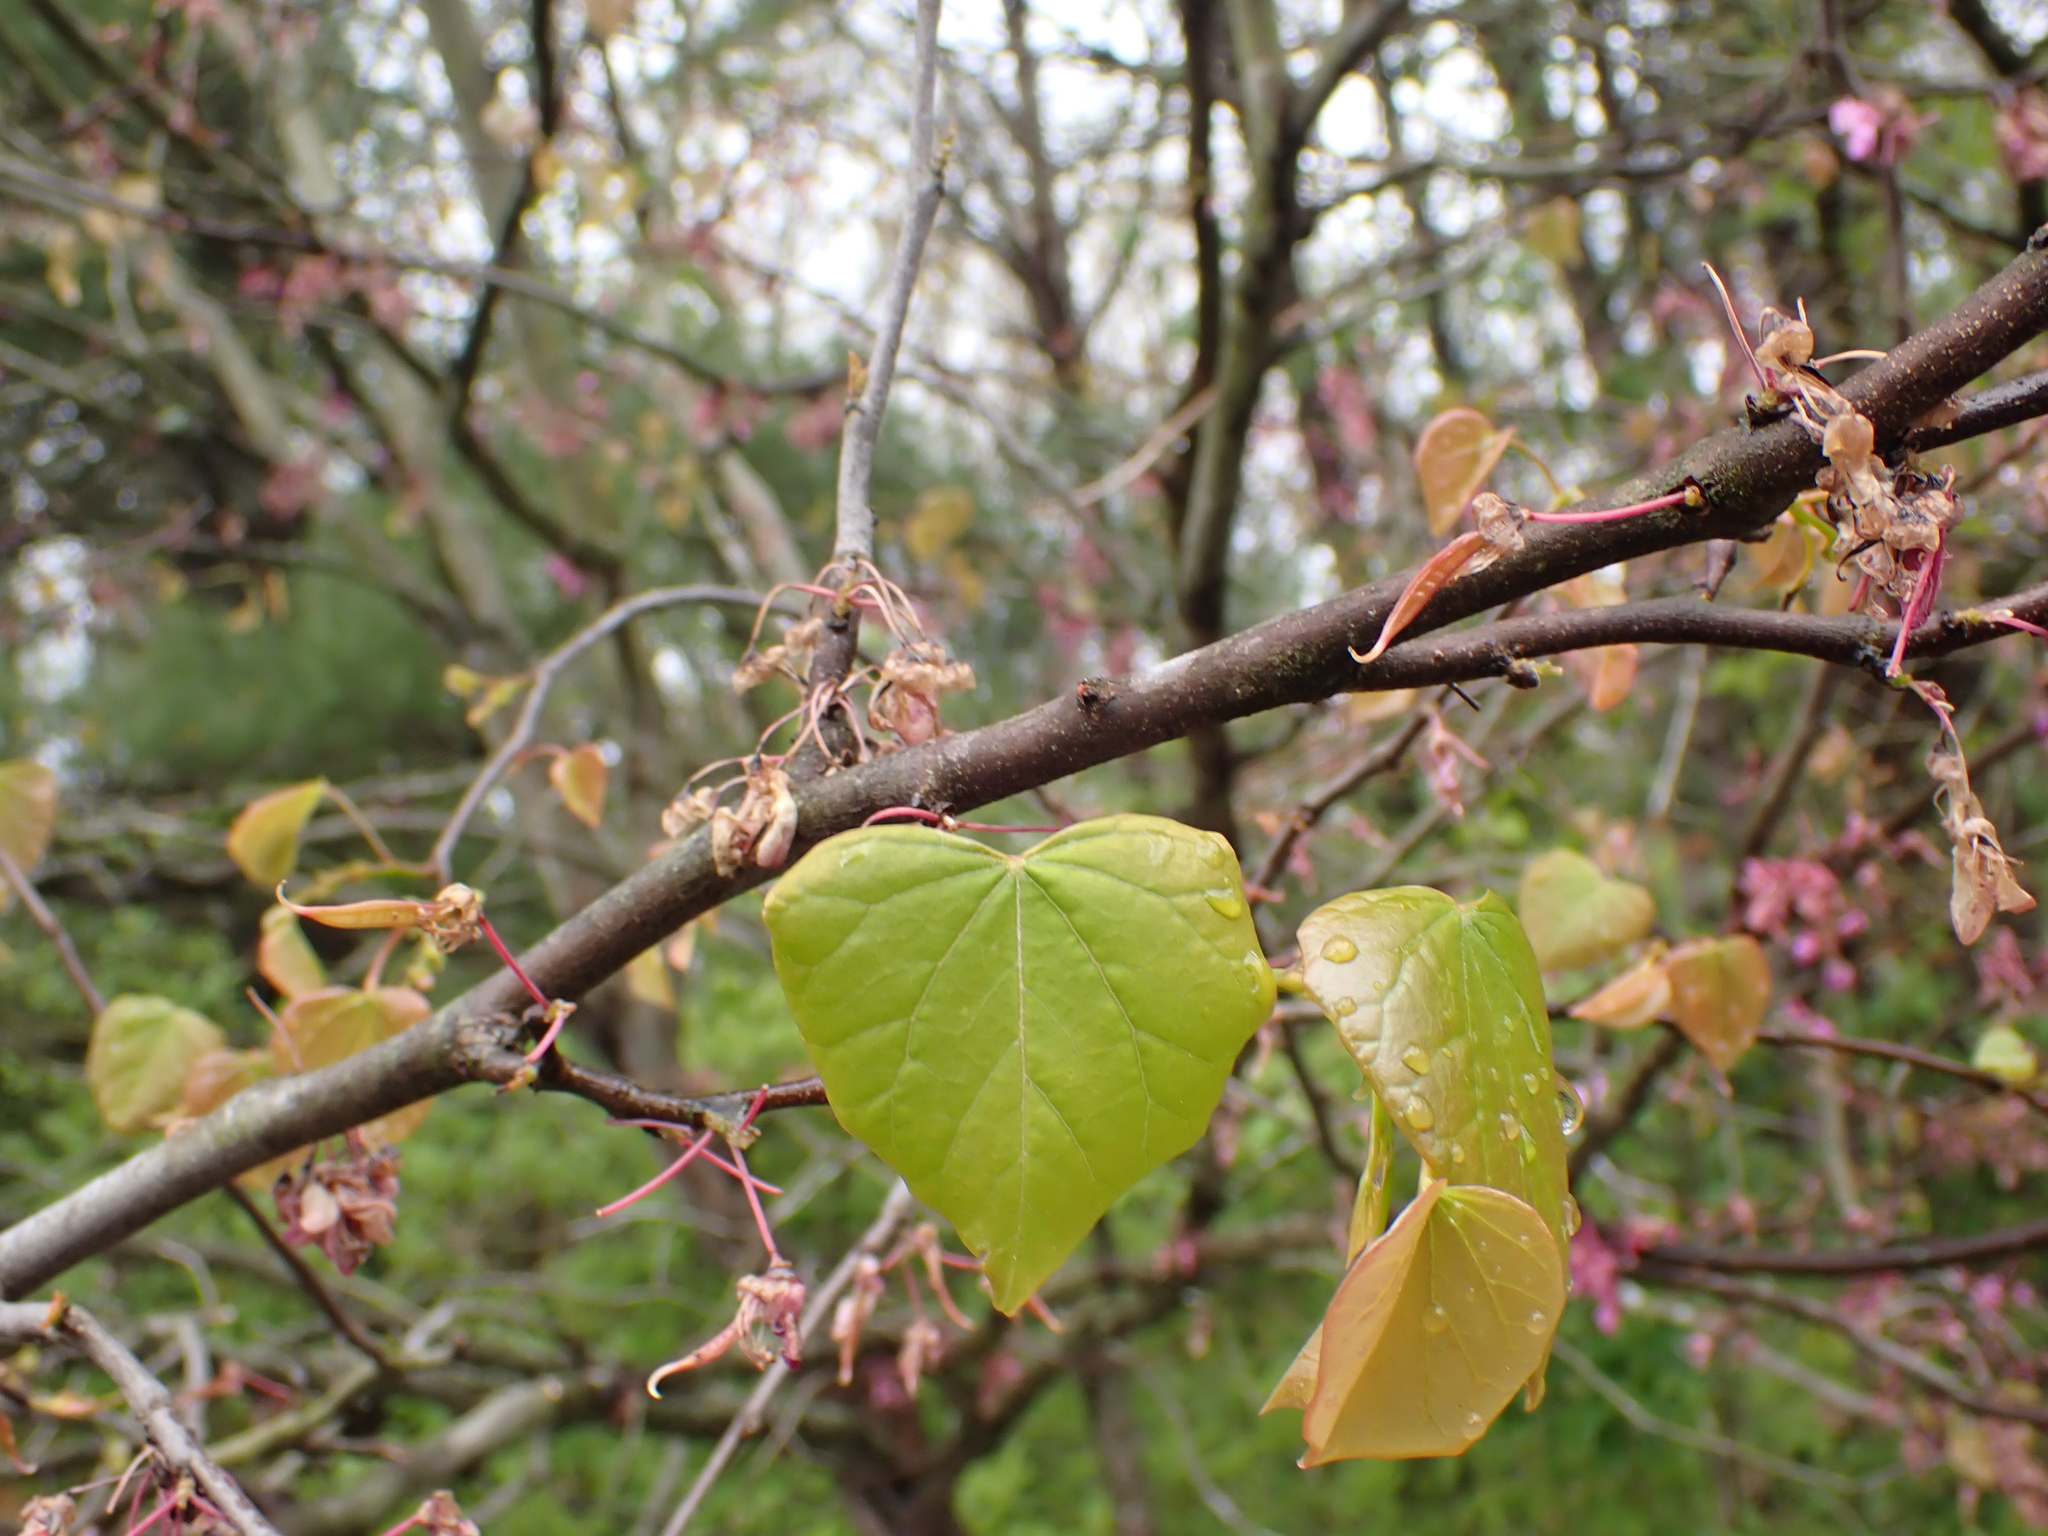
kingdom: Plantae
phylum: Tracheophyta
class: Magnoliopsida
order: Fabales
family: Fabaceae
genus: Cercis
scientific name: Cercis canadensis
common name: Eastern redbud
